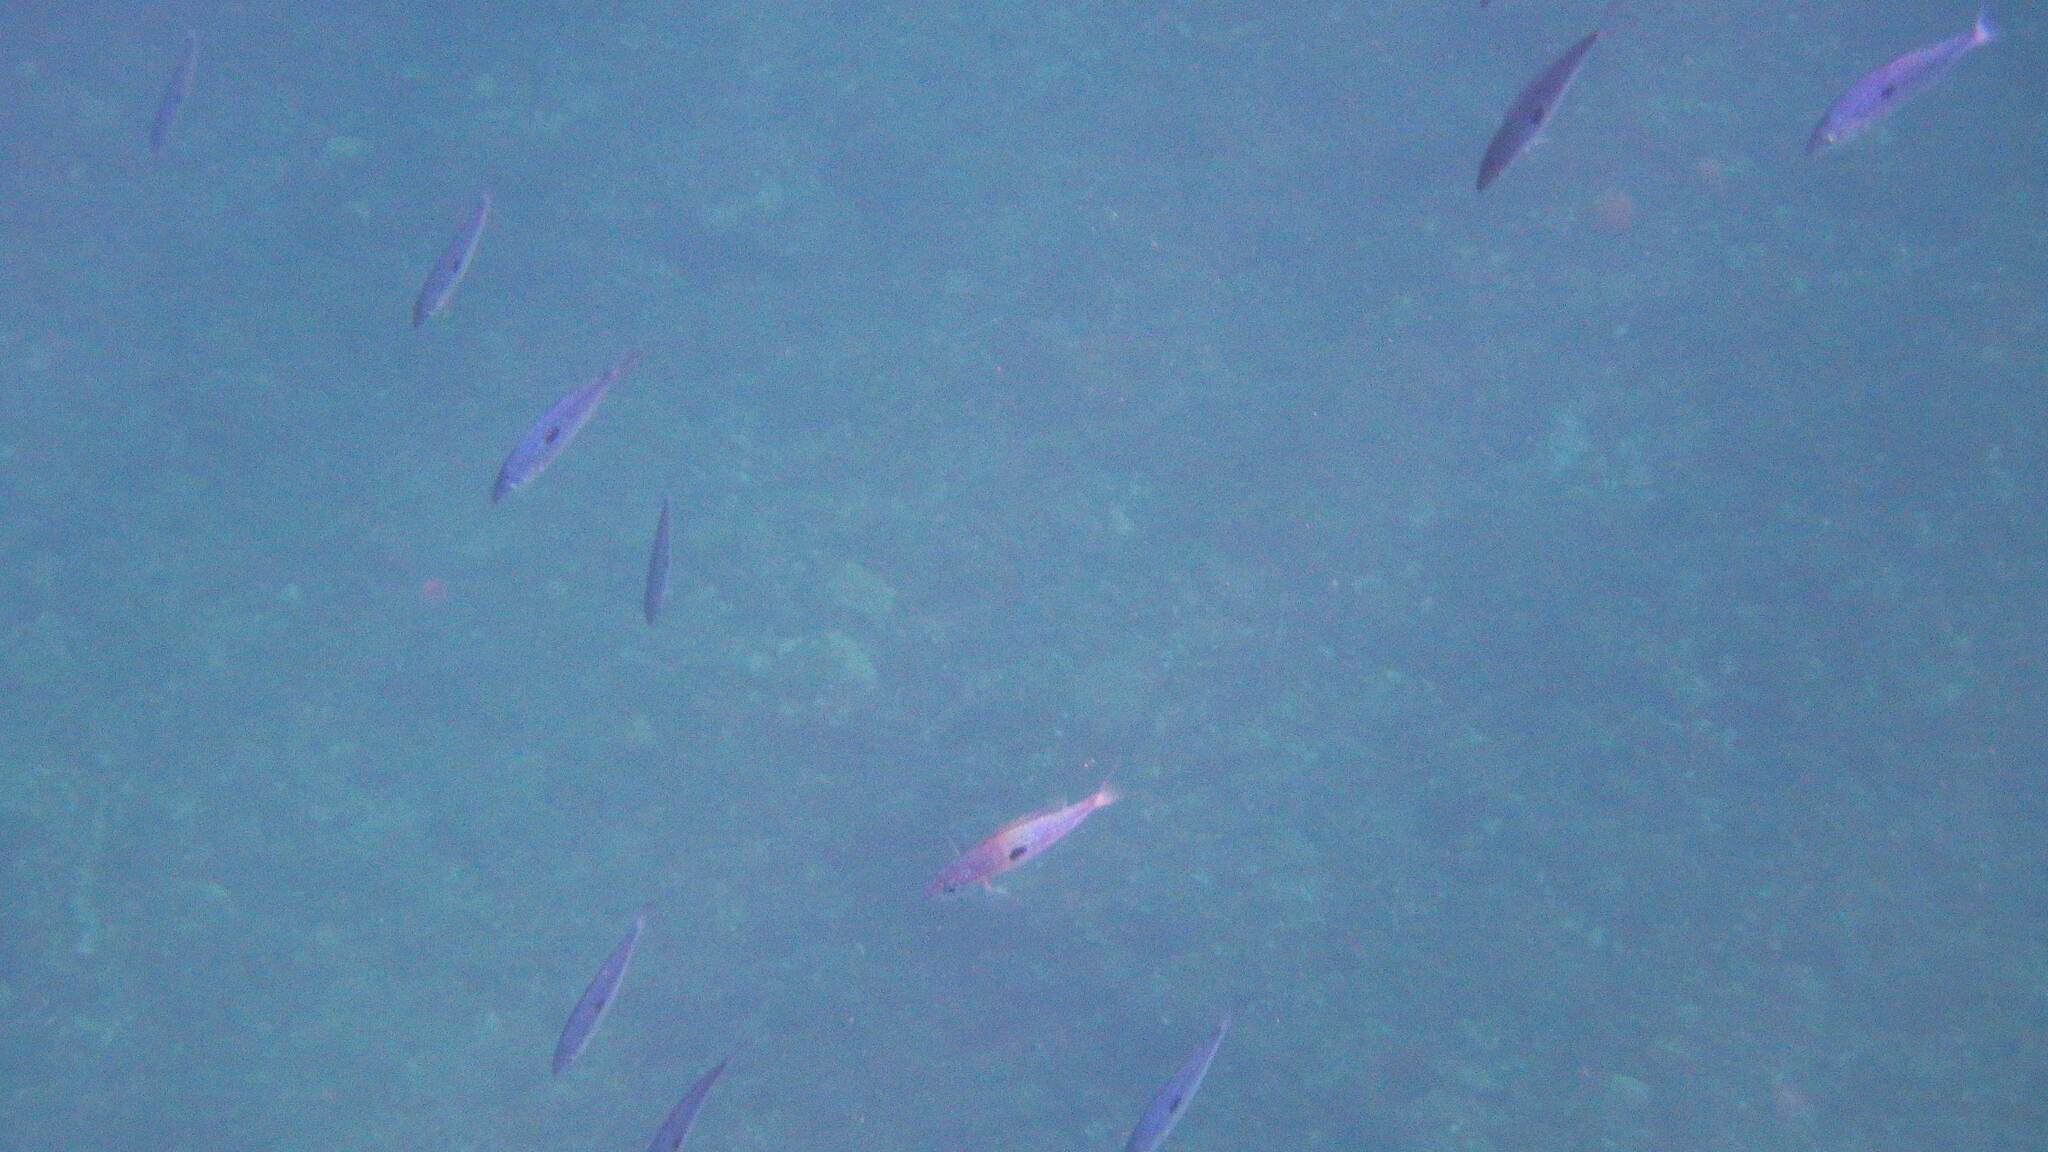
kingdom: Animalia
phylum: Chordata
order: Perciformes
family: Sparidae
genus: Spicara
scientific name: Spicara maena
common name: Blotched picarel
